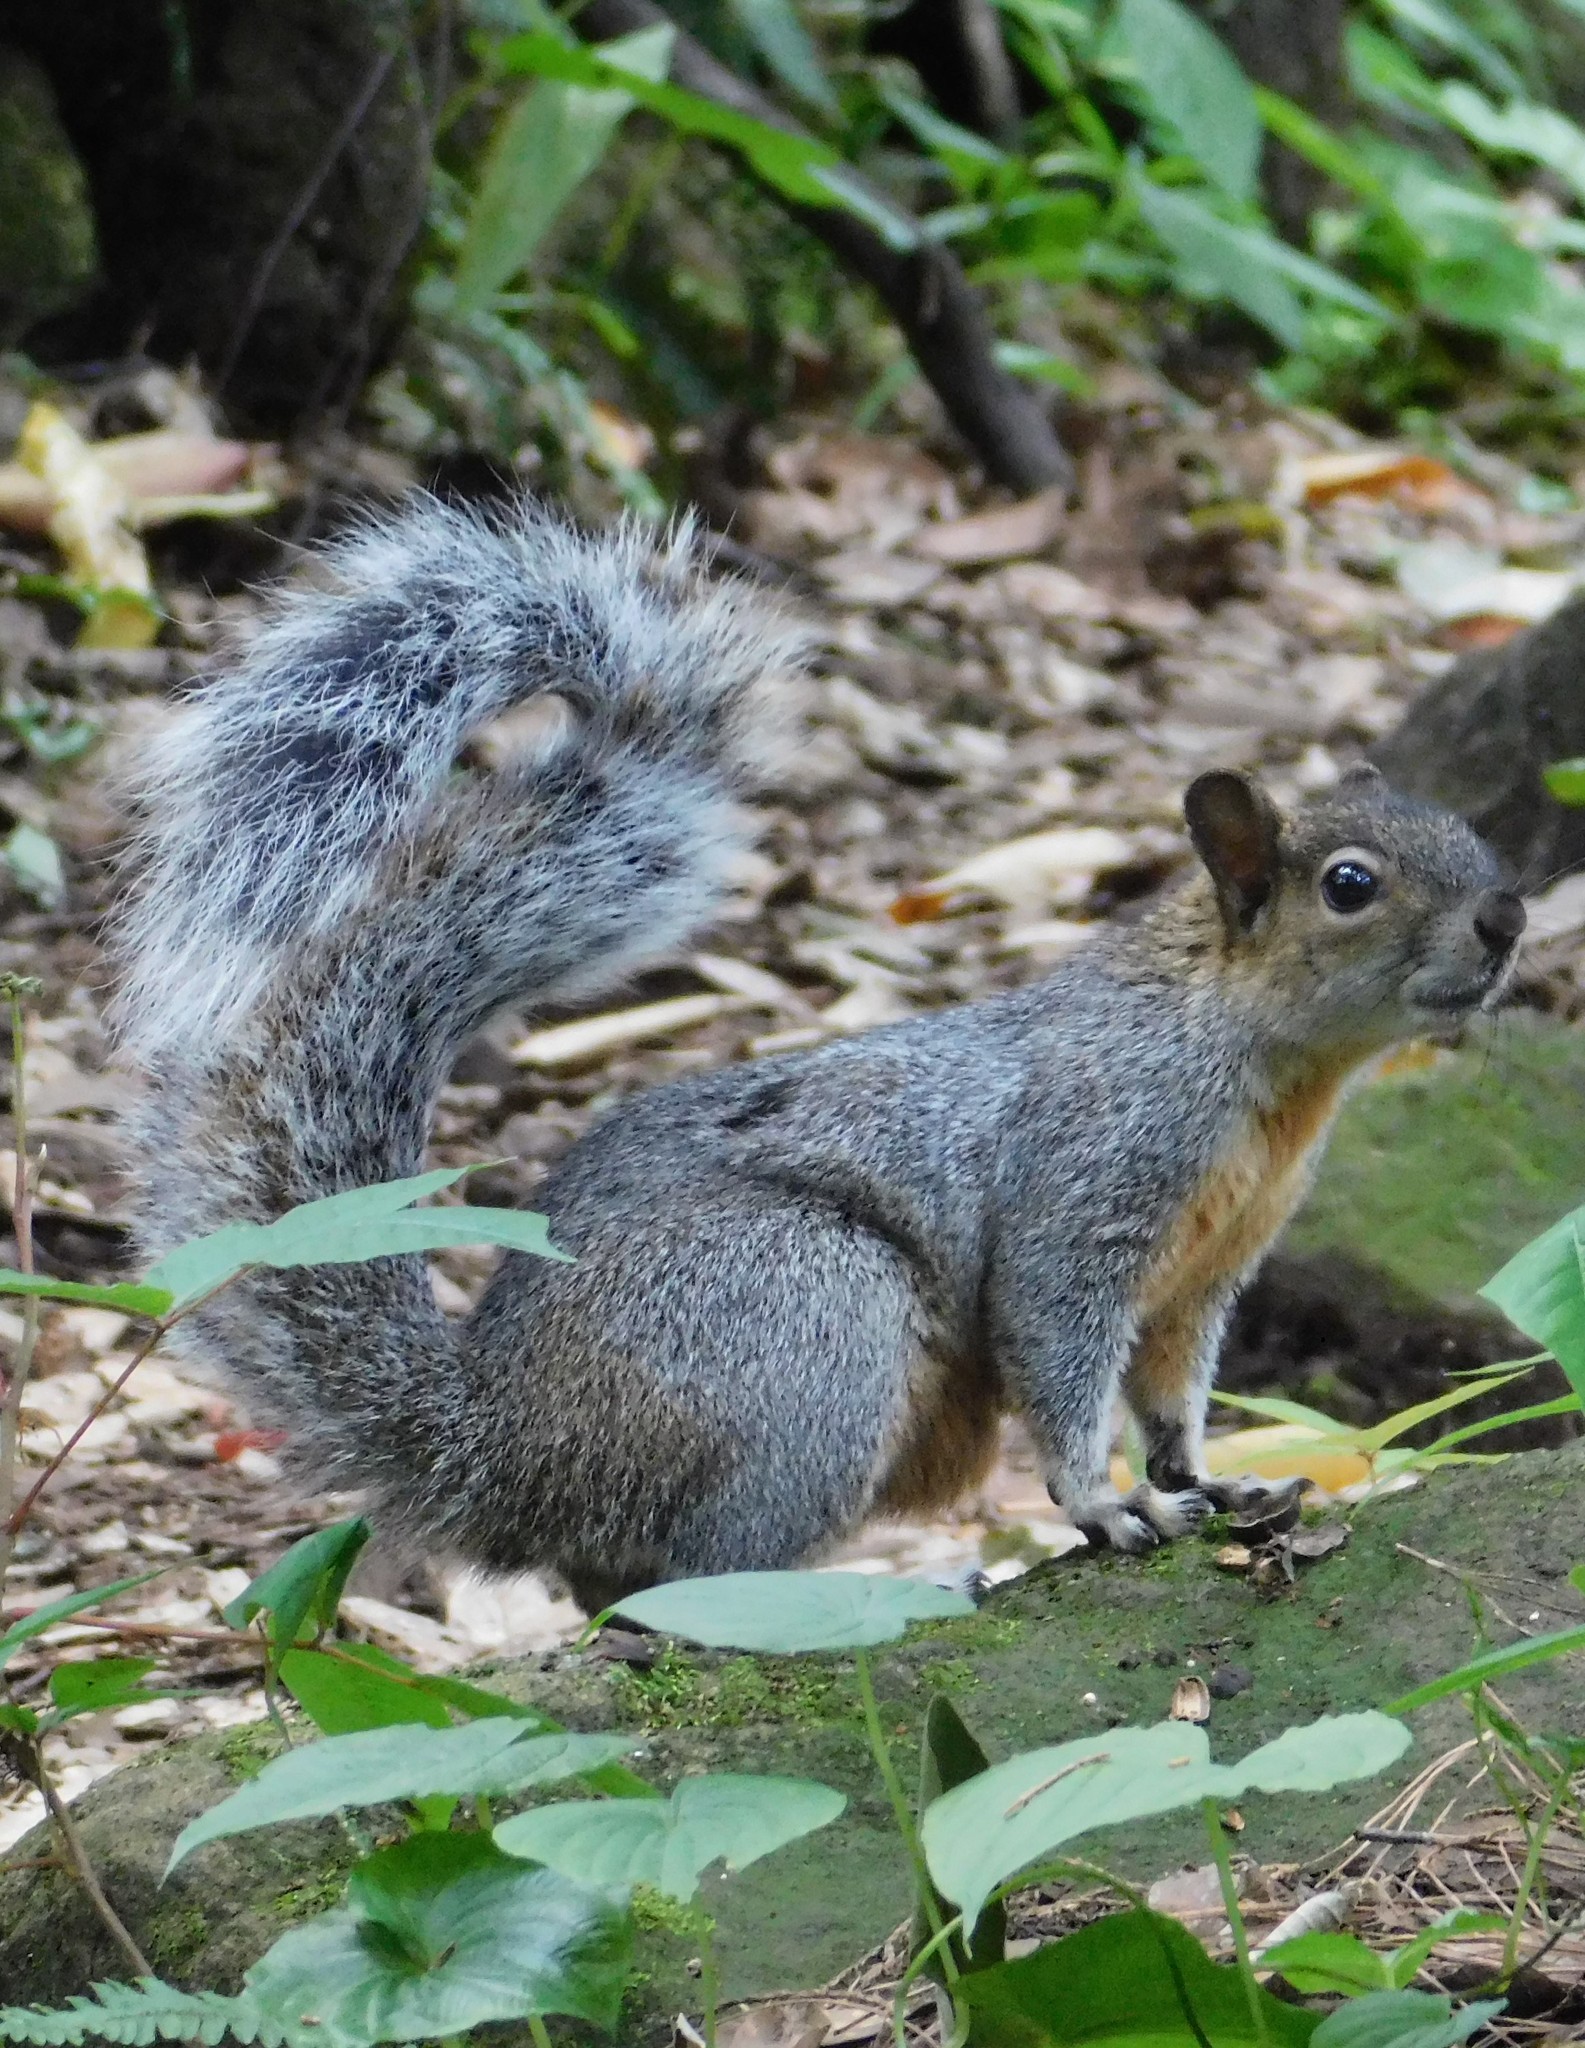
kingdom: Animalia
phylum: Chordata
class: Mammalia
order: Rodentia
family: Sciuridae
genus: Sciurus
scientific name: Sciurus aureogaster
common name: Red-bellied squirrel
